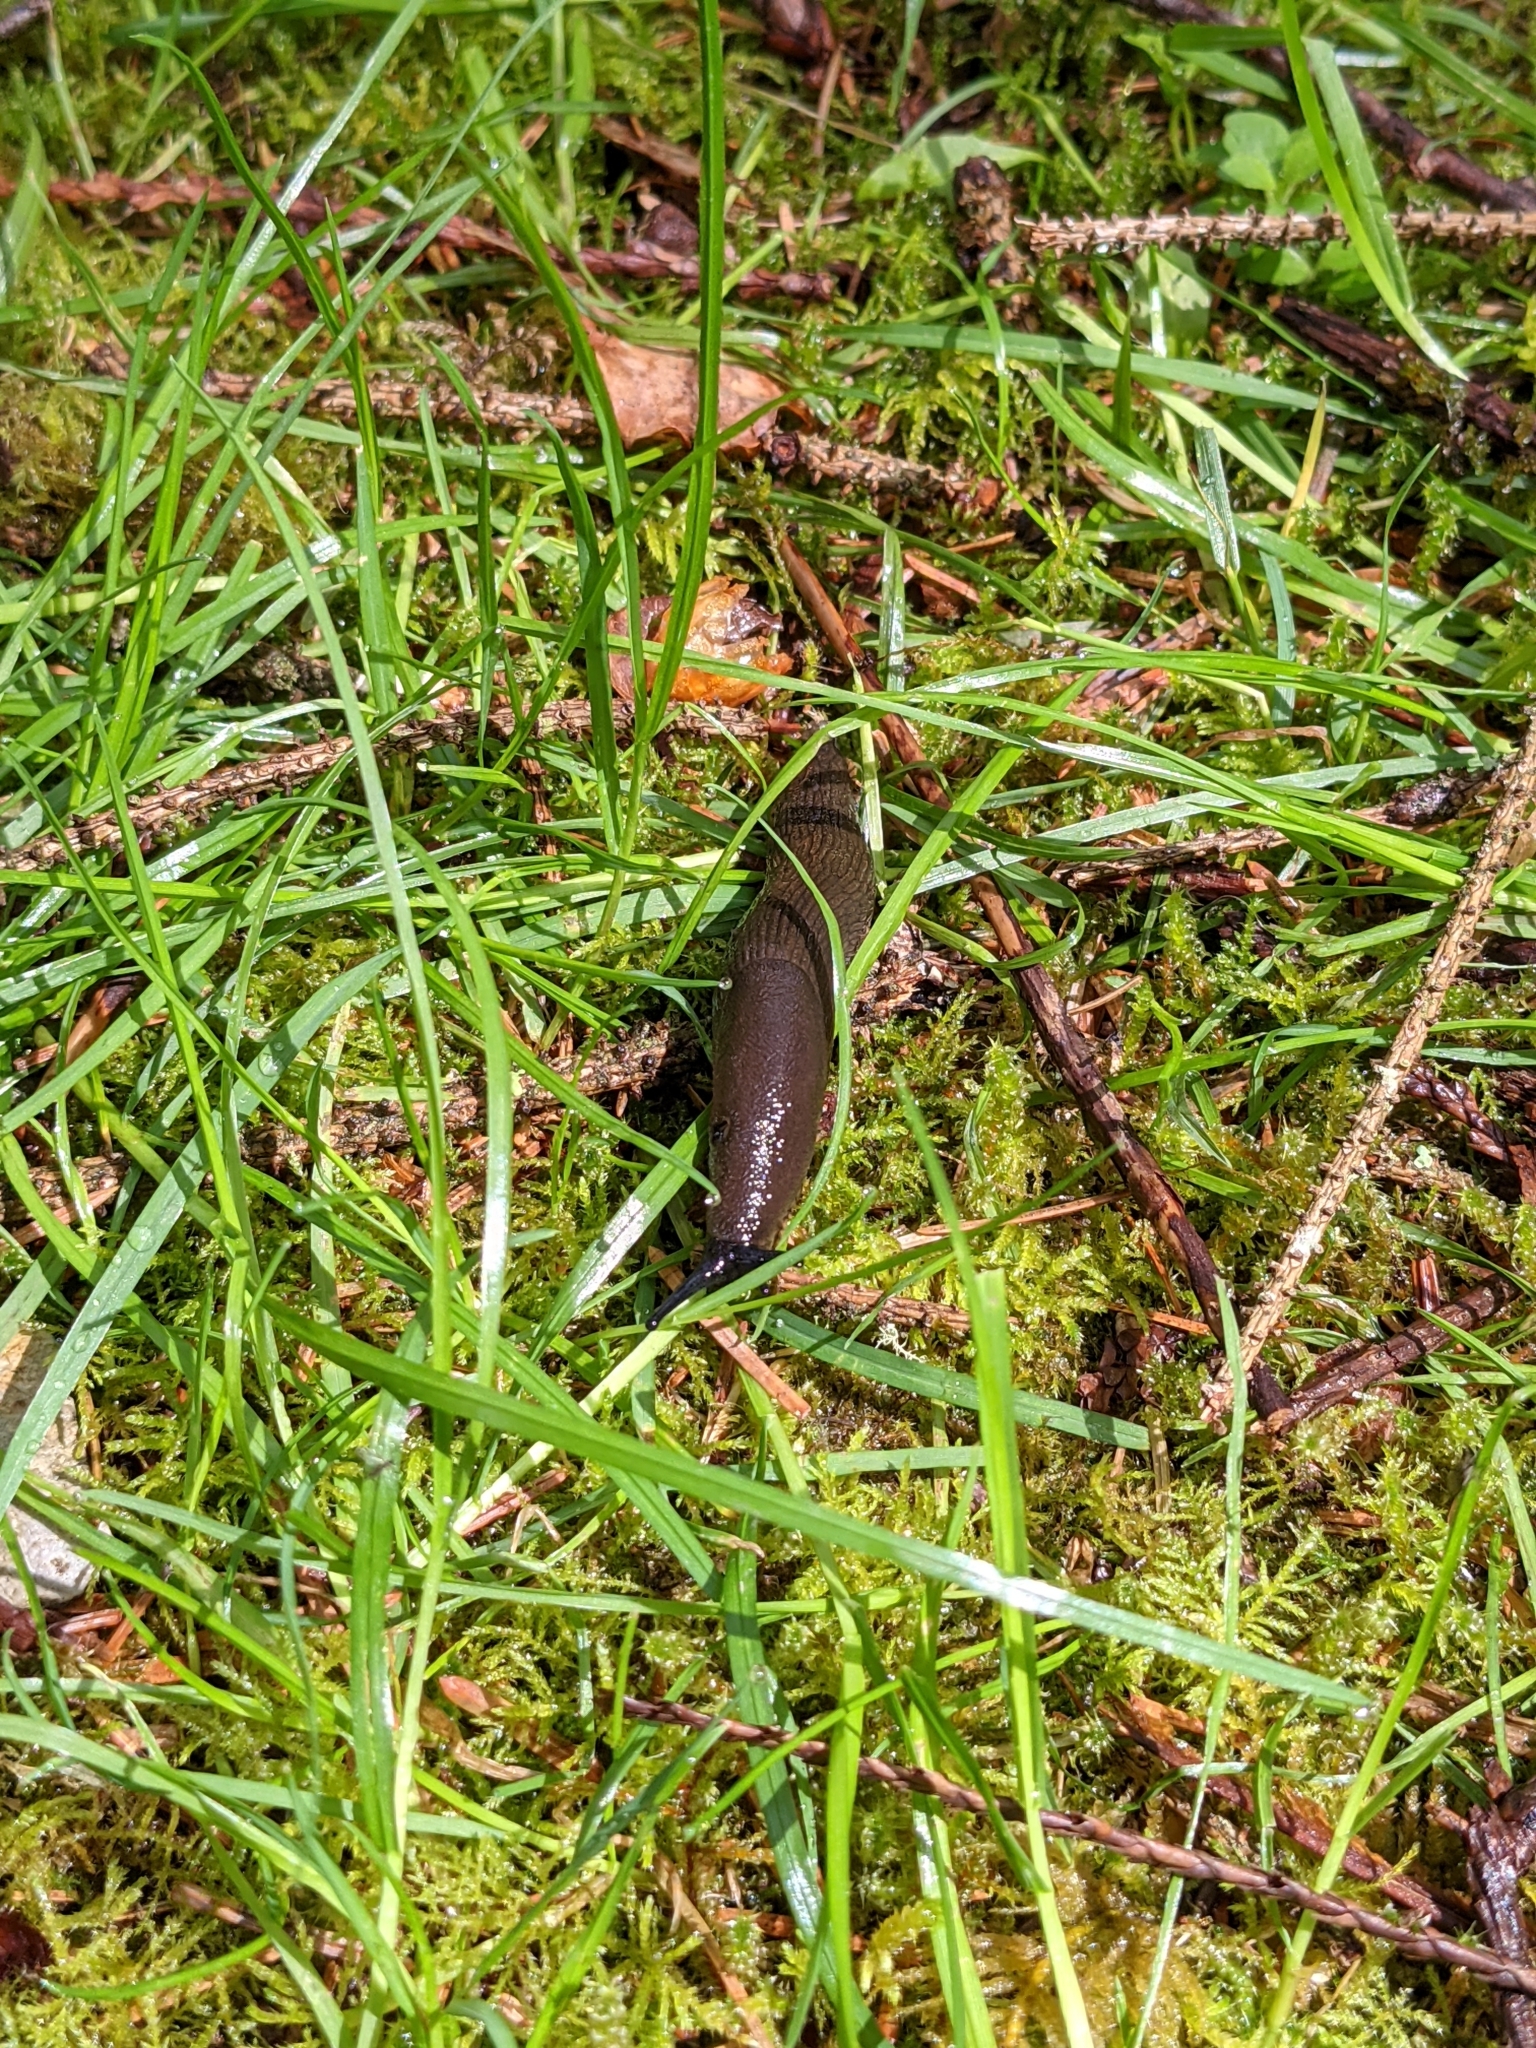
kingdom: Animalia
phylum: Mollusca
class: Gastropoda
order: Stylommatophora
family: Arionidae
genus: Arion
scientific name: Arion rufus
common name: Chocolate arion
